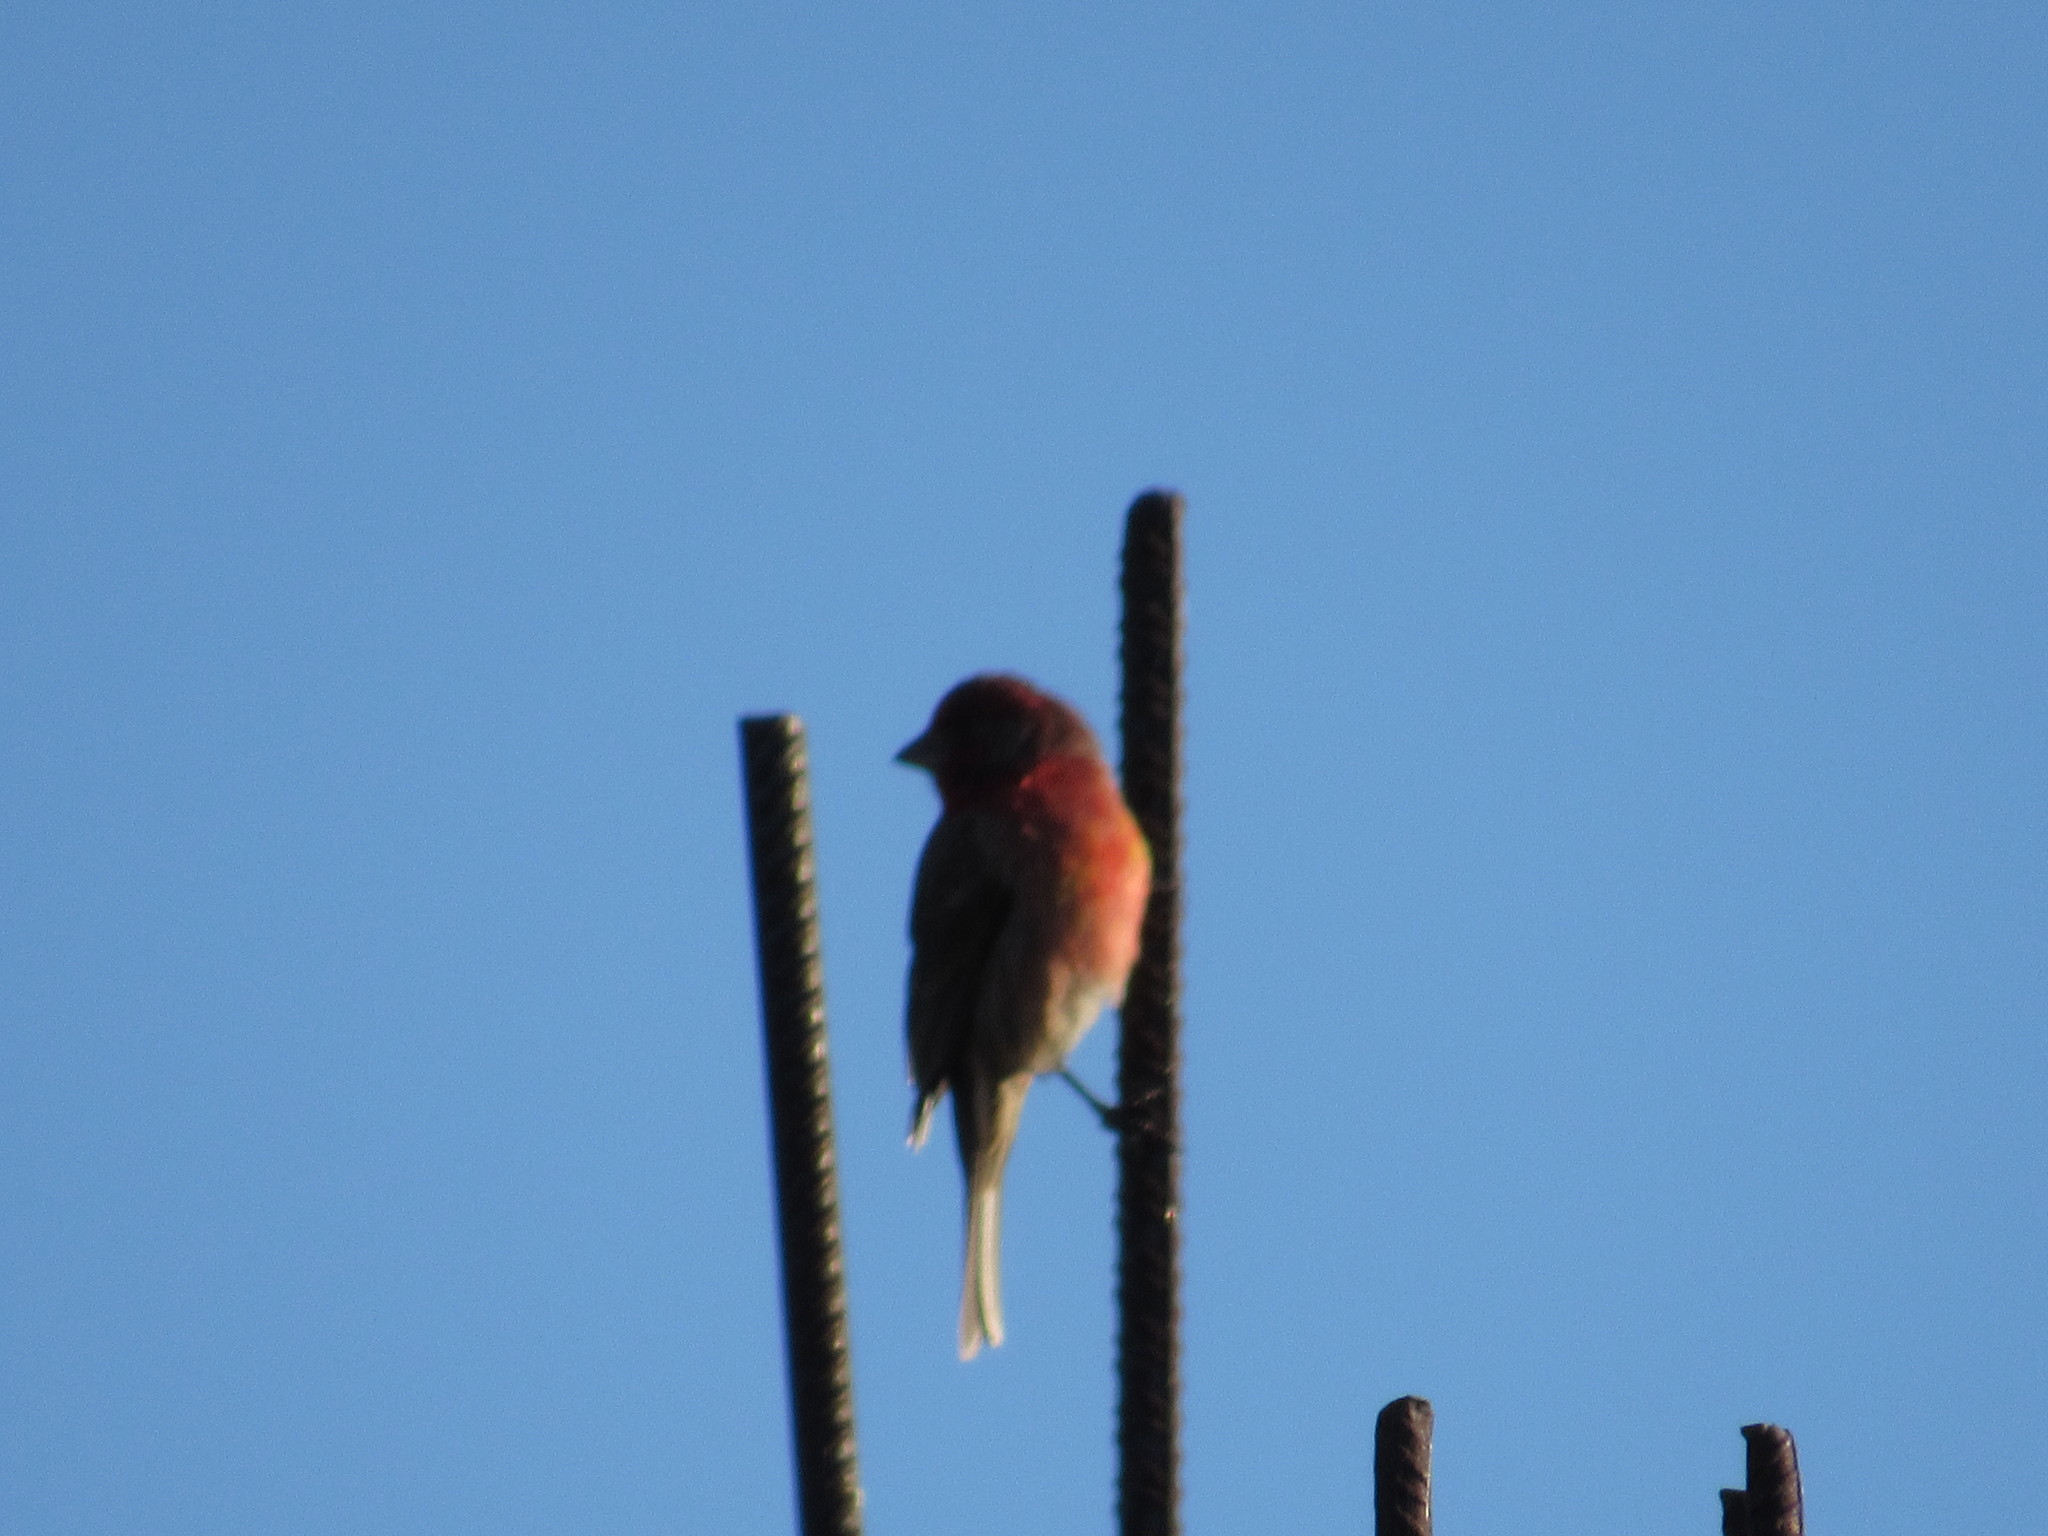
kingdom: Animalia
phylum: Chordata
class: Aves
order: Passeriformes
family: Fringillidae
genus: Haemorhous
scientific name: Haemorhous mexicanus
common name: House finch
